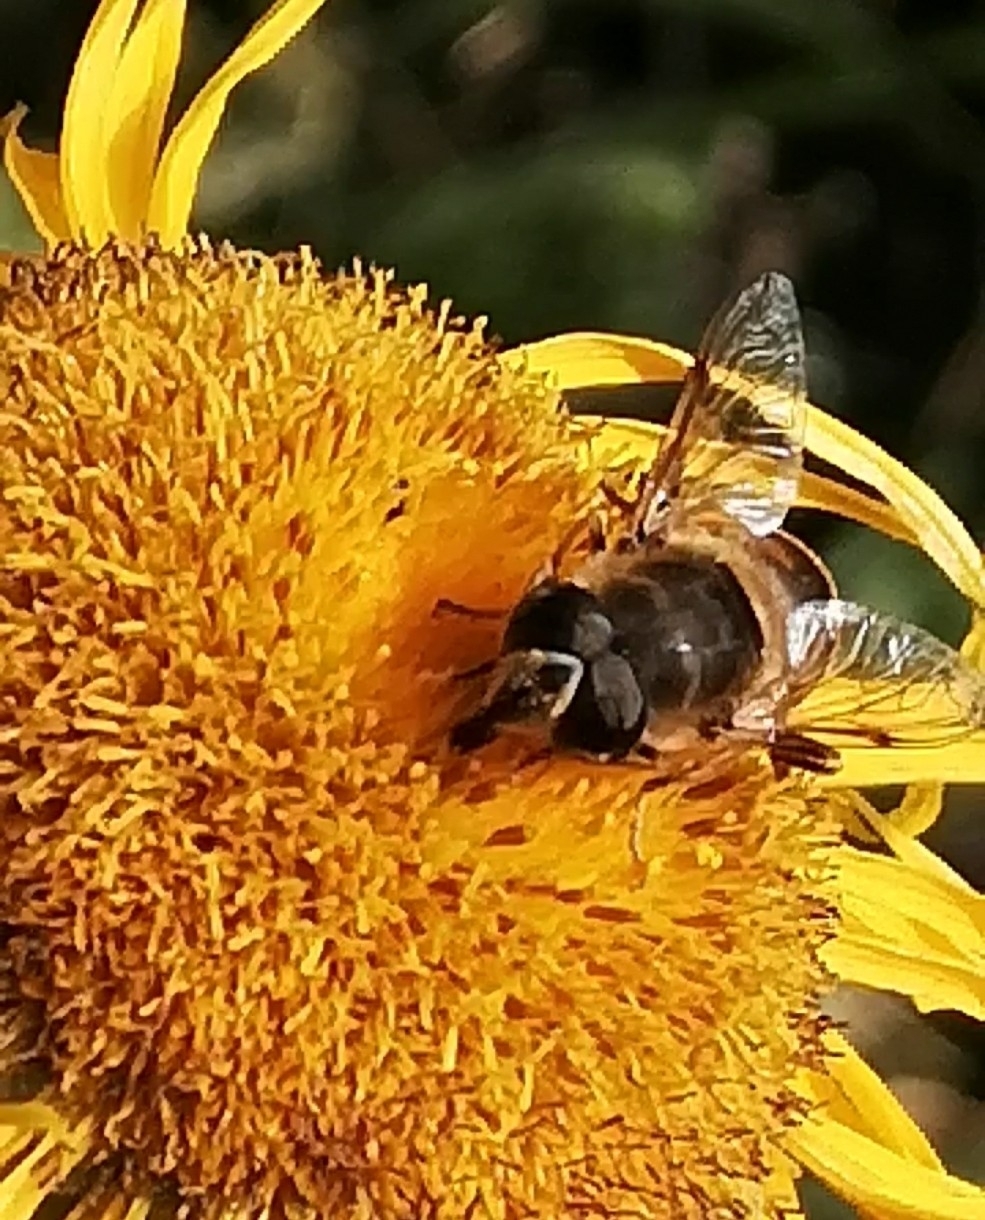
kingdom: Animalia
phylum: Arthropoda
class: Insecta
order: Diptera
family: Syrphidae
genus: Eristalis
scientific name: Eristalis tenax
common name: Drone fly
